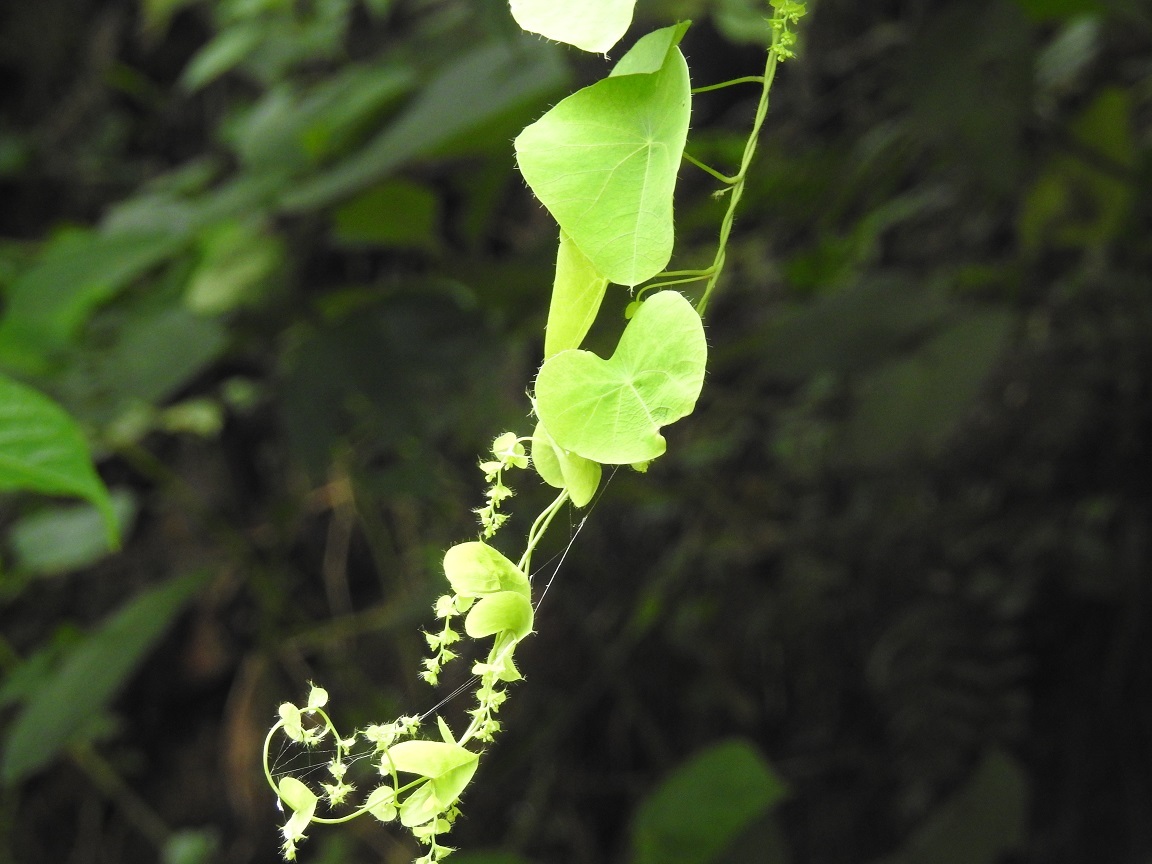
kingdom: Plantae
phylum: Tracheophyta
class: Magnoliopsida
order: Ranunculales
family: Menispermaceae
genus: Cissampelos
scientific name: Cissampelos tropaeolifolia
